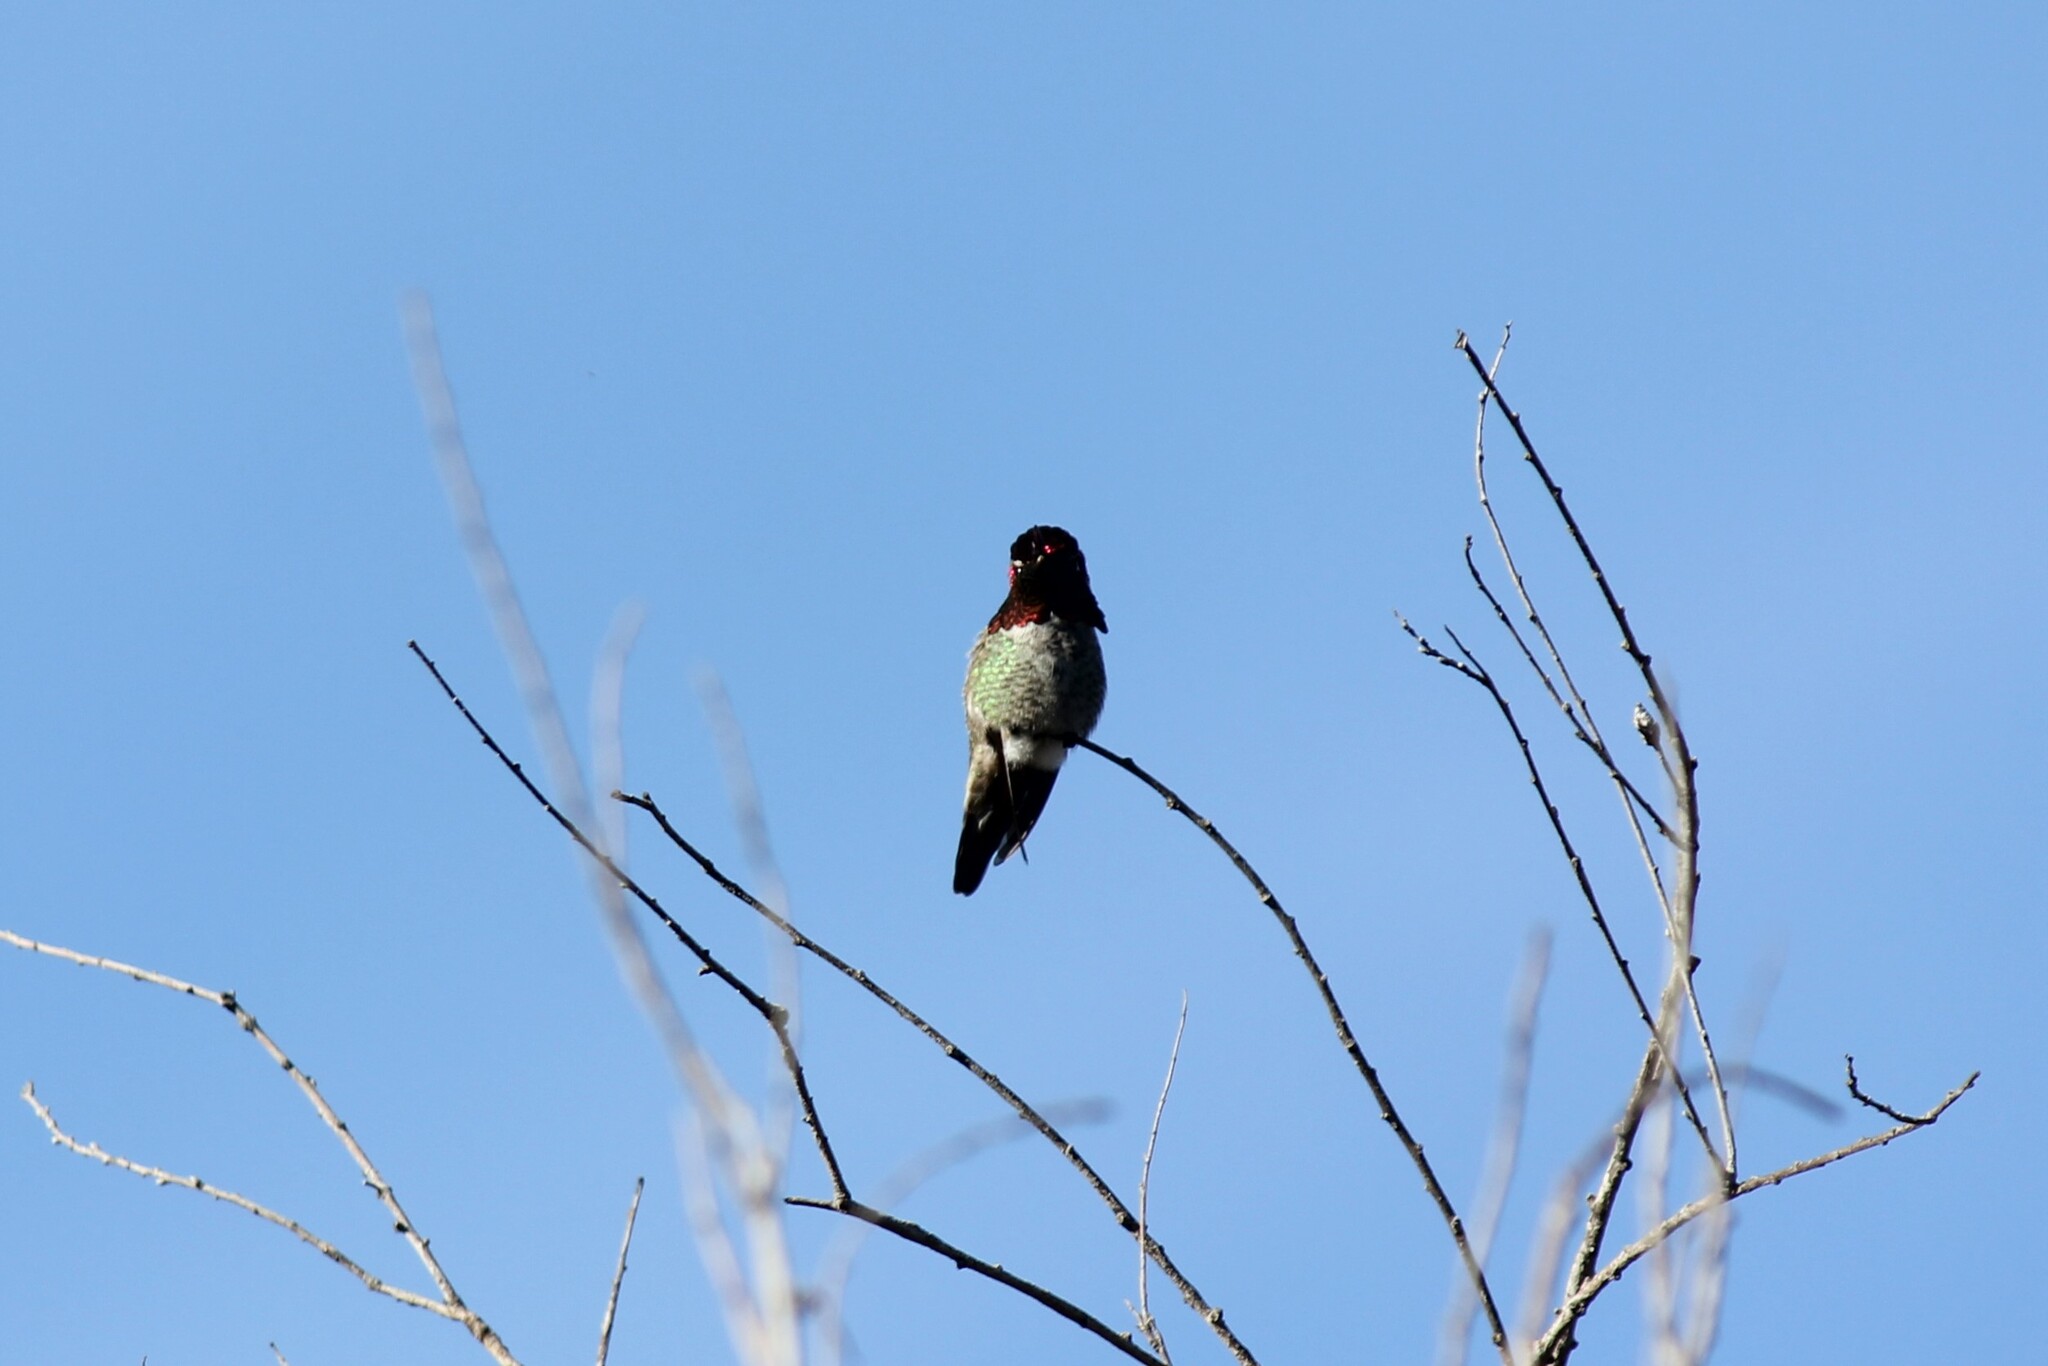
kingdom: Animalia
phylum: Chordata
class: Aves
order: Apodiformes
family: Trochilidae
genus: Calypte
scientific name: Calypte anna
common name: Anna's hummingbird
